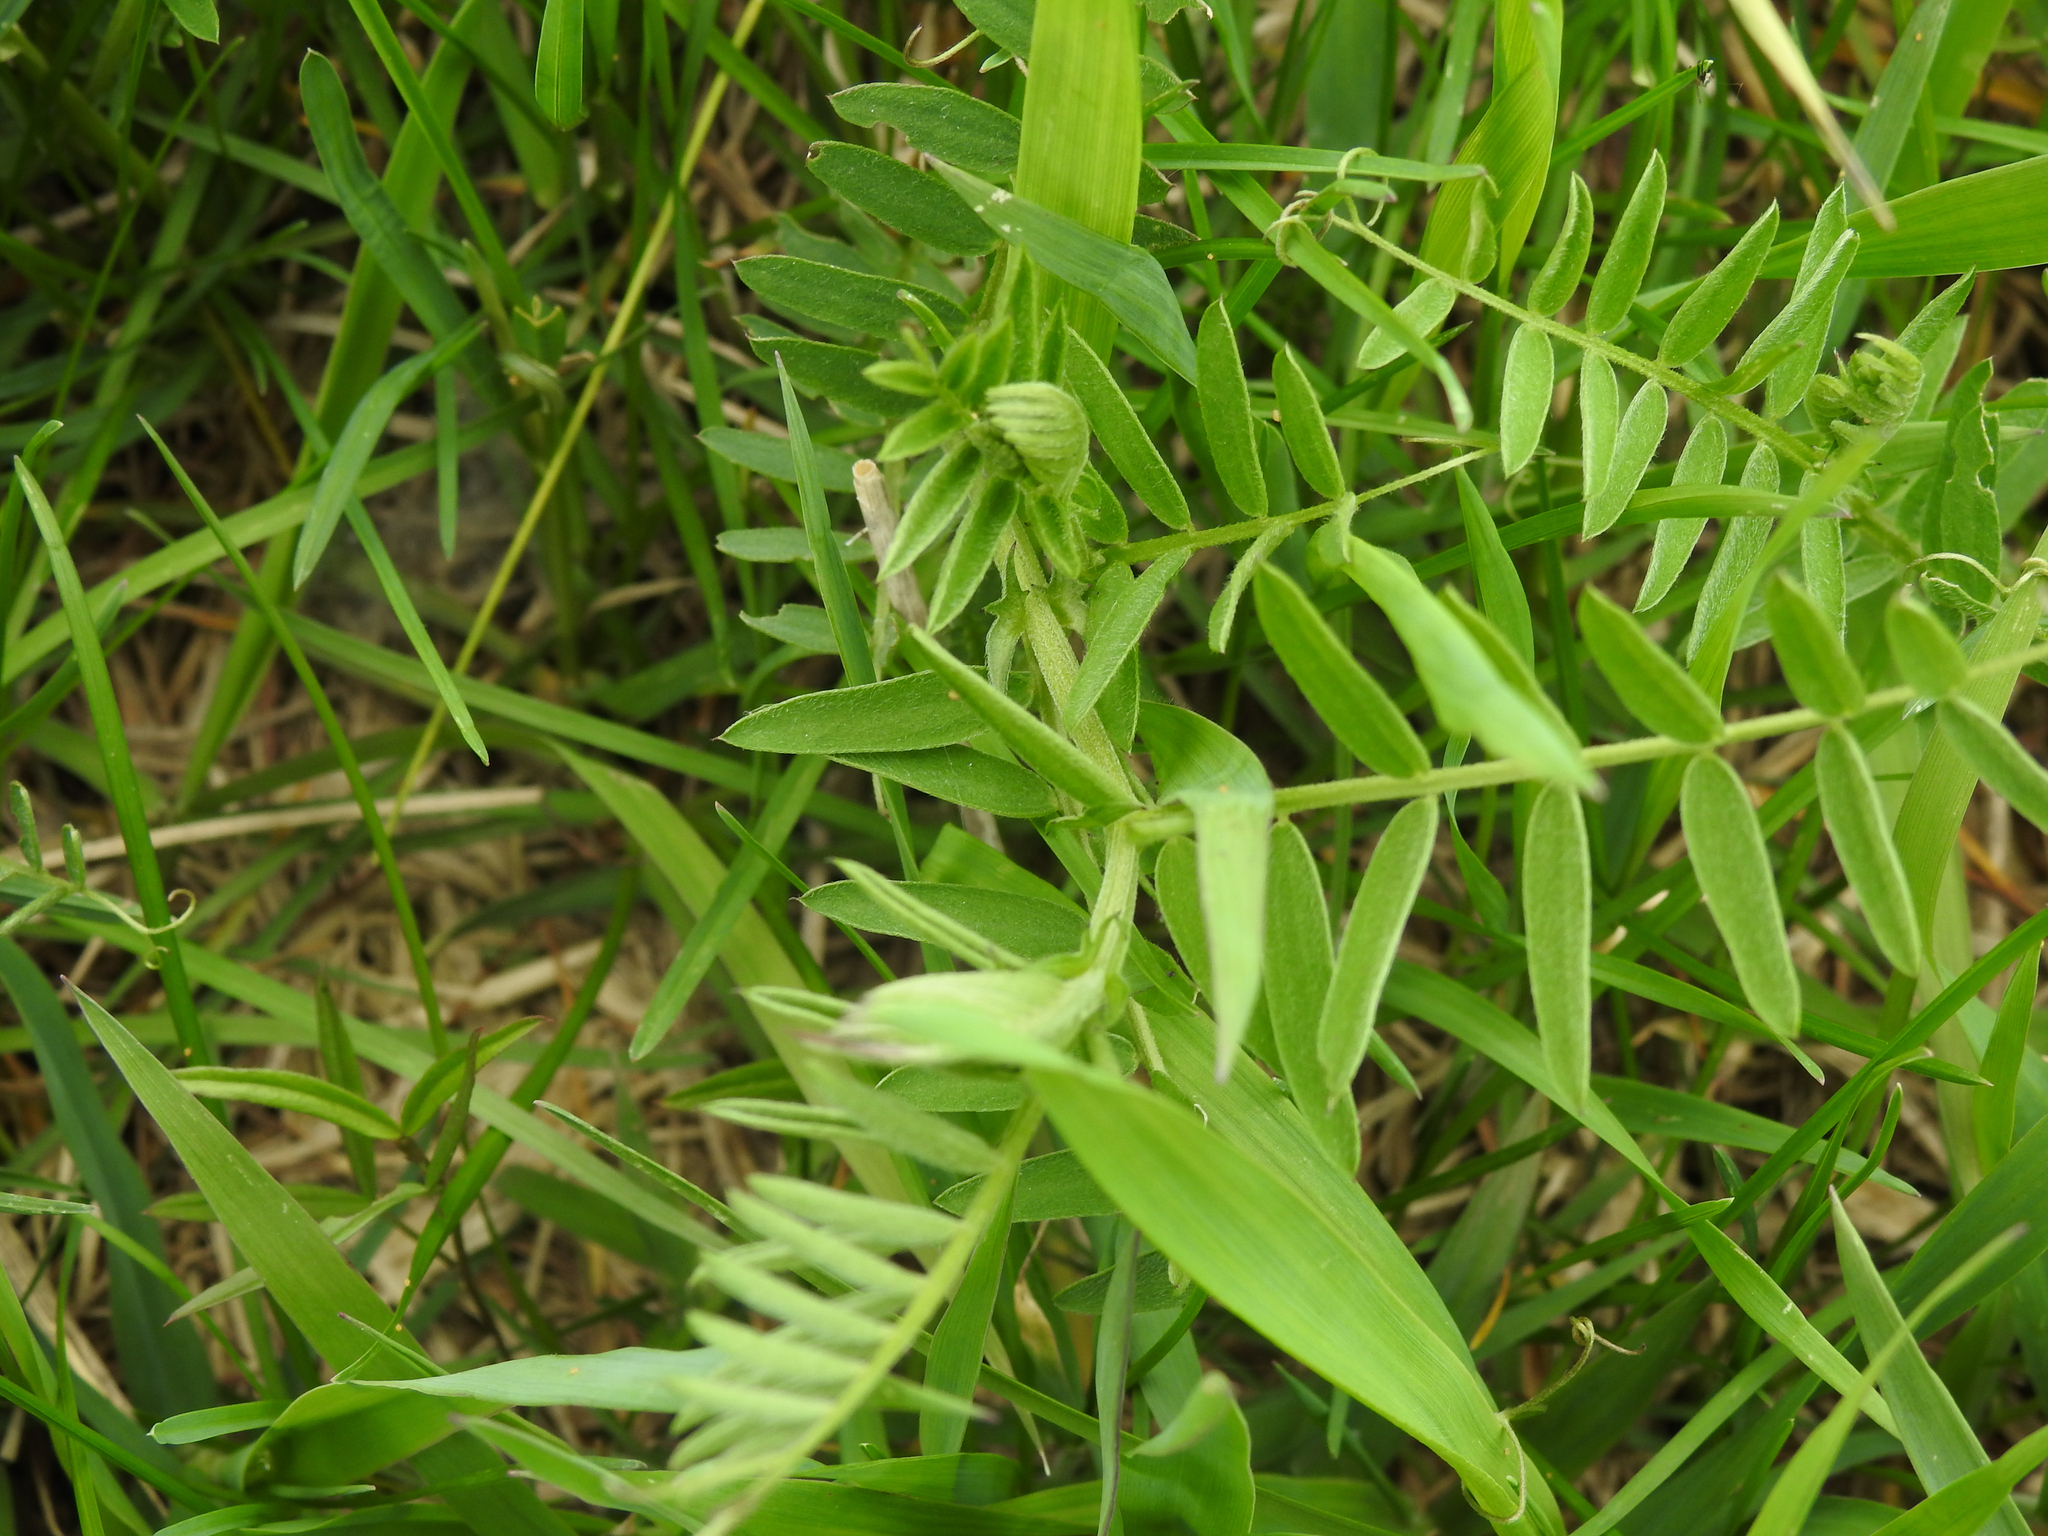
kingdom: Plantae
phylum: Tracheophyta
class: Magnoliopsida
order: Fabales
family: Fabaceae
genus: Vicia
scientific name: Vicia cracca
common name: Bird vetch
